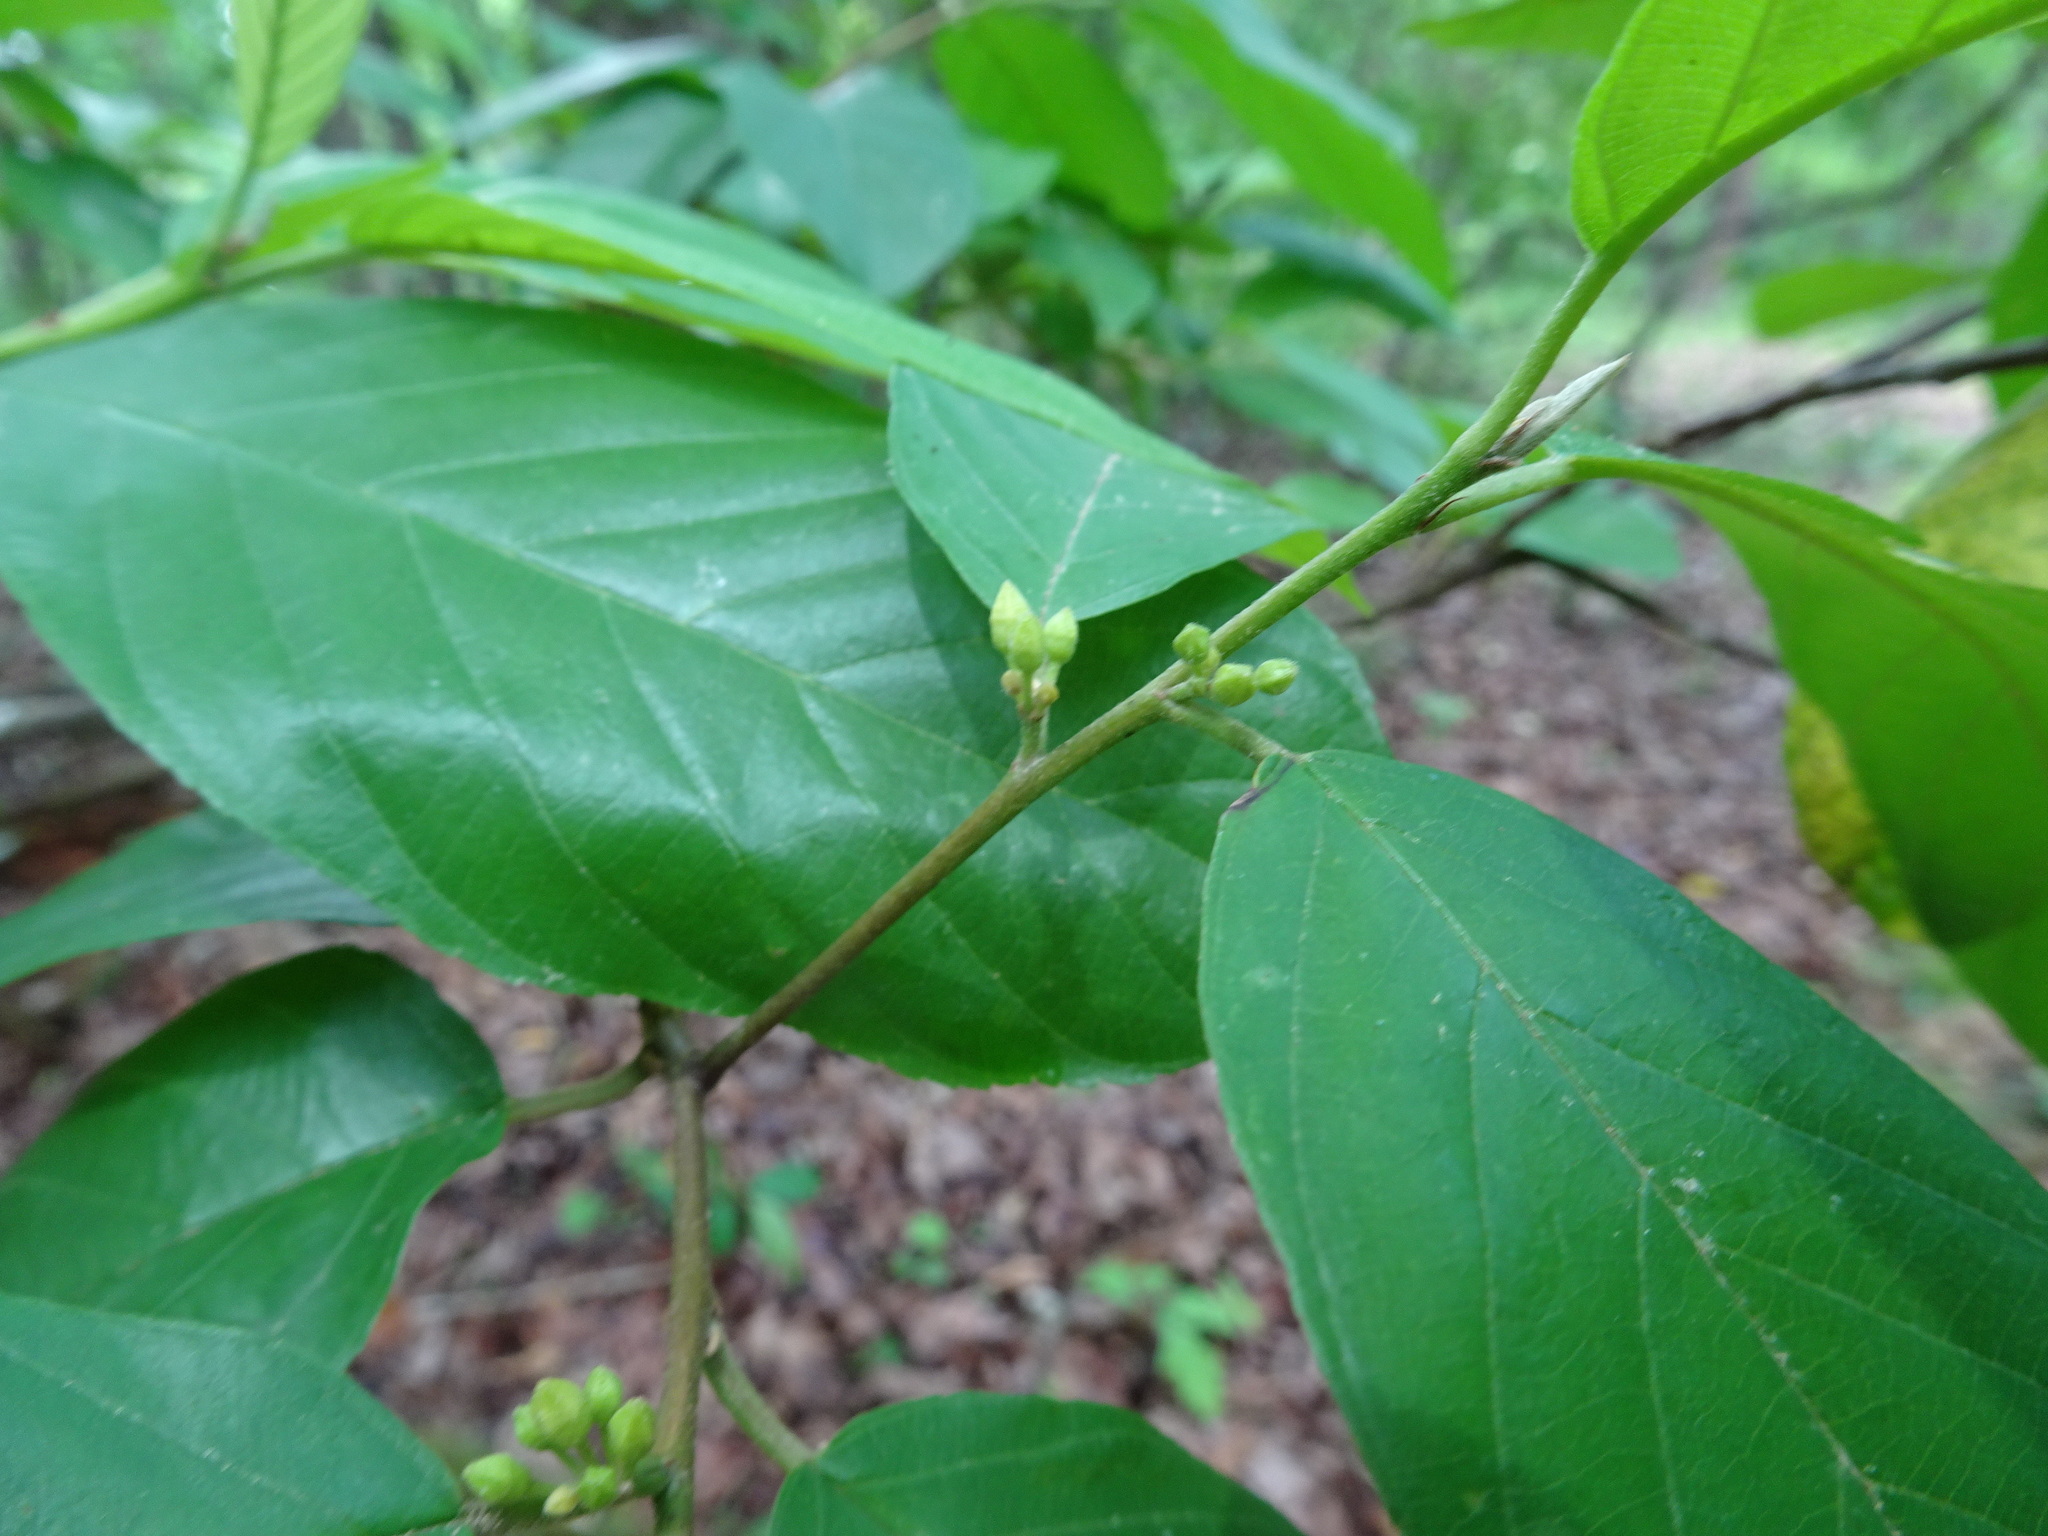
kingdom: Plantae
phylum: Tracheophyta
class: Magnoliopsida
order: Rosales
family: Rhamnaceae
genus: Frangula
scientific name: Frangula caroliniana
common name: Carolina buckthorn
